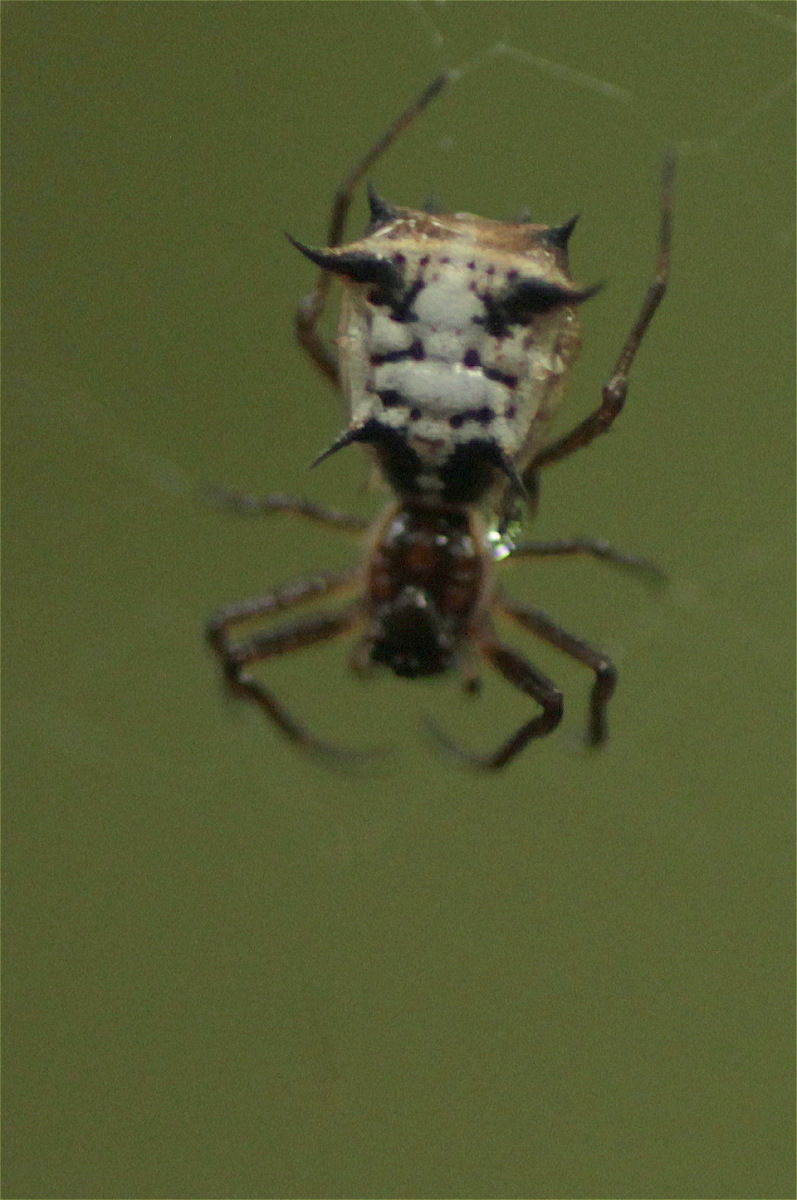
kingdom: Animalia
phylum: Arthropoda
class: Arachnida
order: Araneae
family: Araneidae
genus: Micrathena
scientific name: Micrathena woytkowskii
